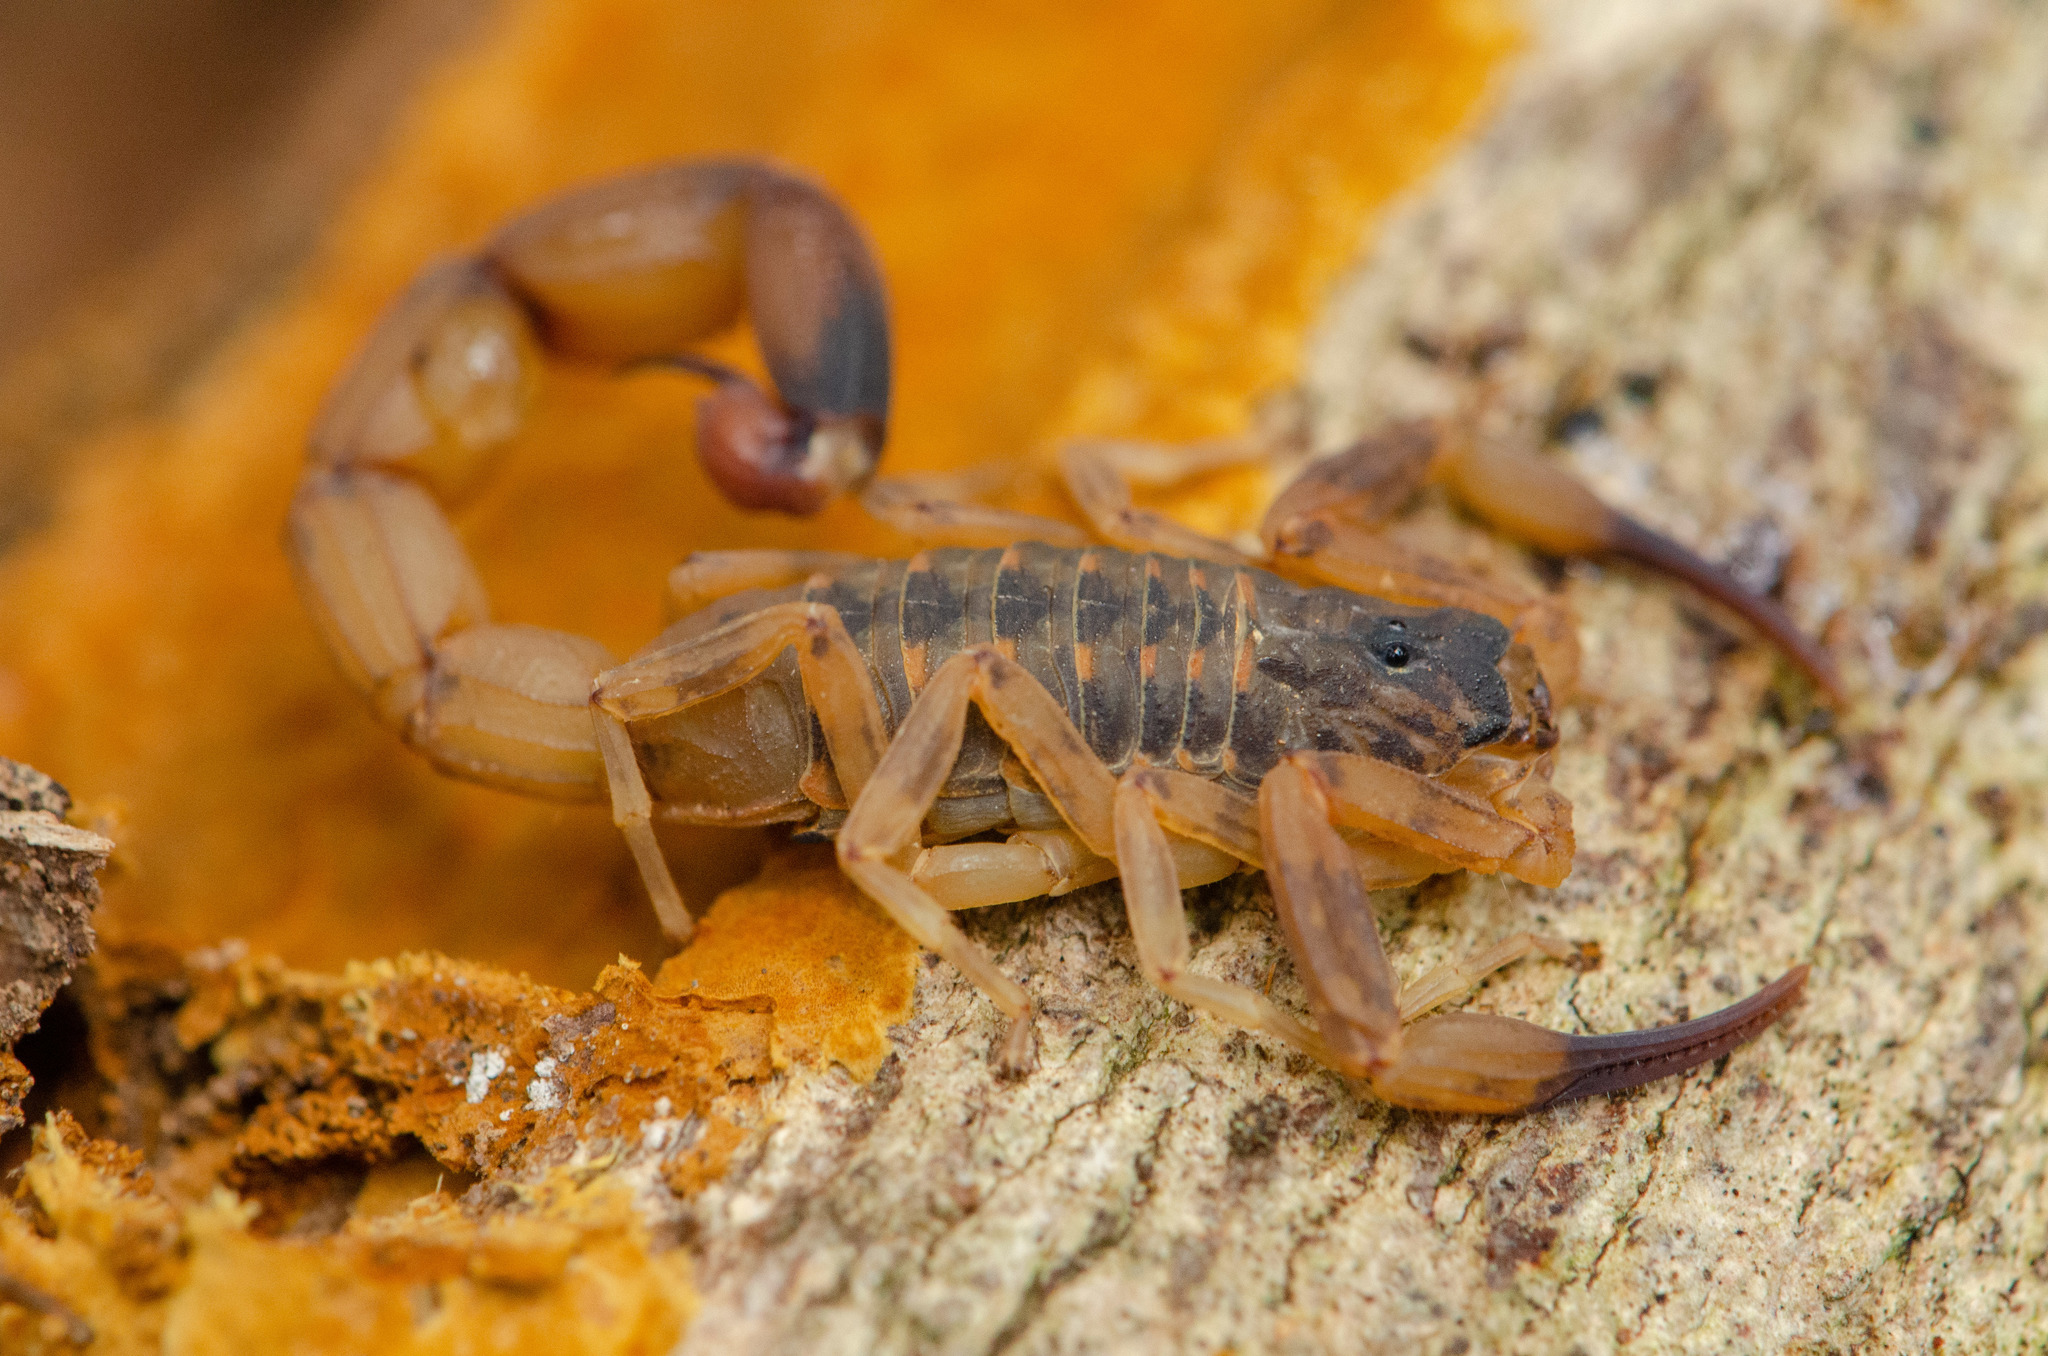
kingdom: Animalia
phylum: Arthropoda
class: Arachnida
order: Scorpiones
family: Buthidae
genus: Tityus
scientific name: Tityus aba
